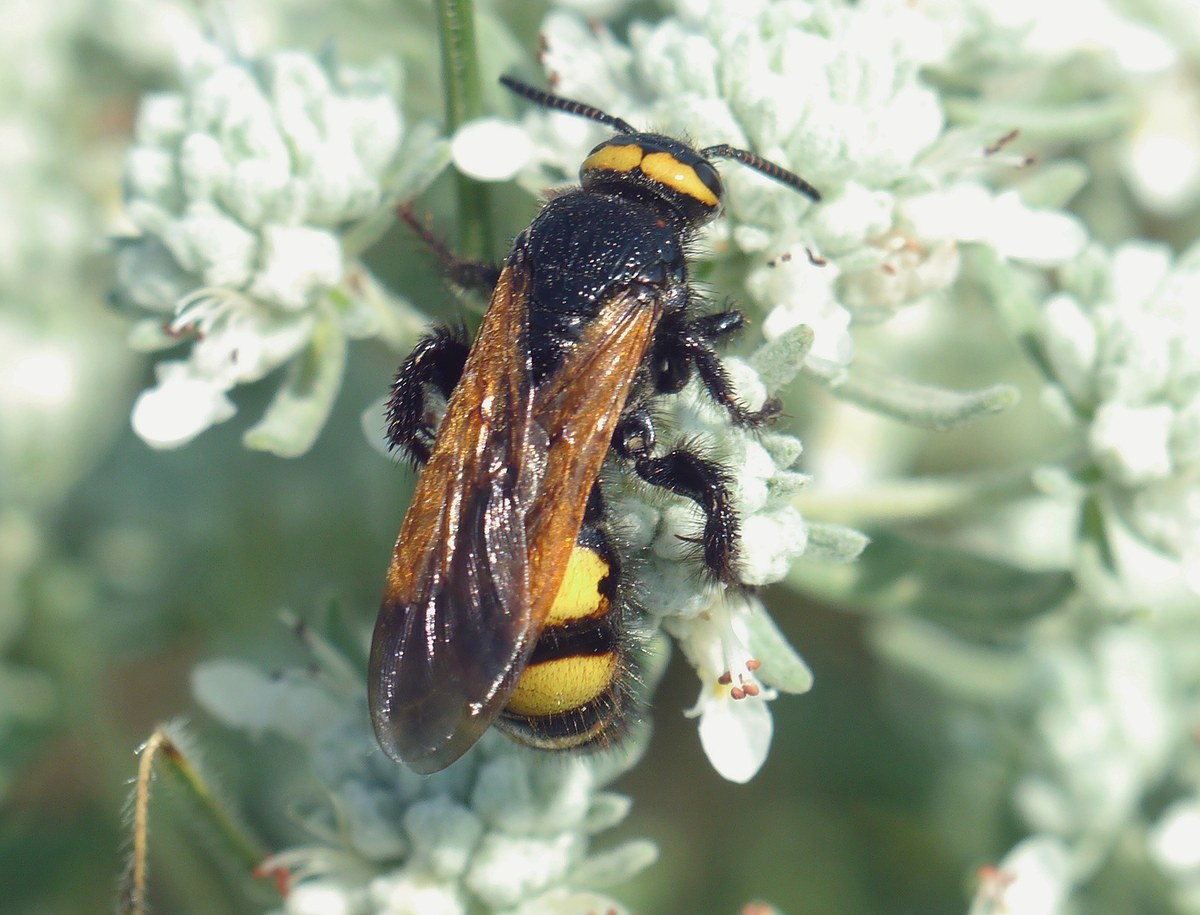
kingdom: Animalia
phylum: Arthropoda
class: Insecta
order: Hymenoptera
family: Scoliidae
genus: Scolia
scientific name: Scolia fuciformis
